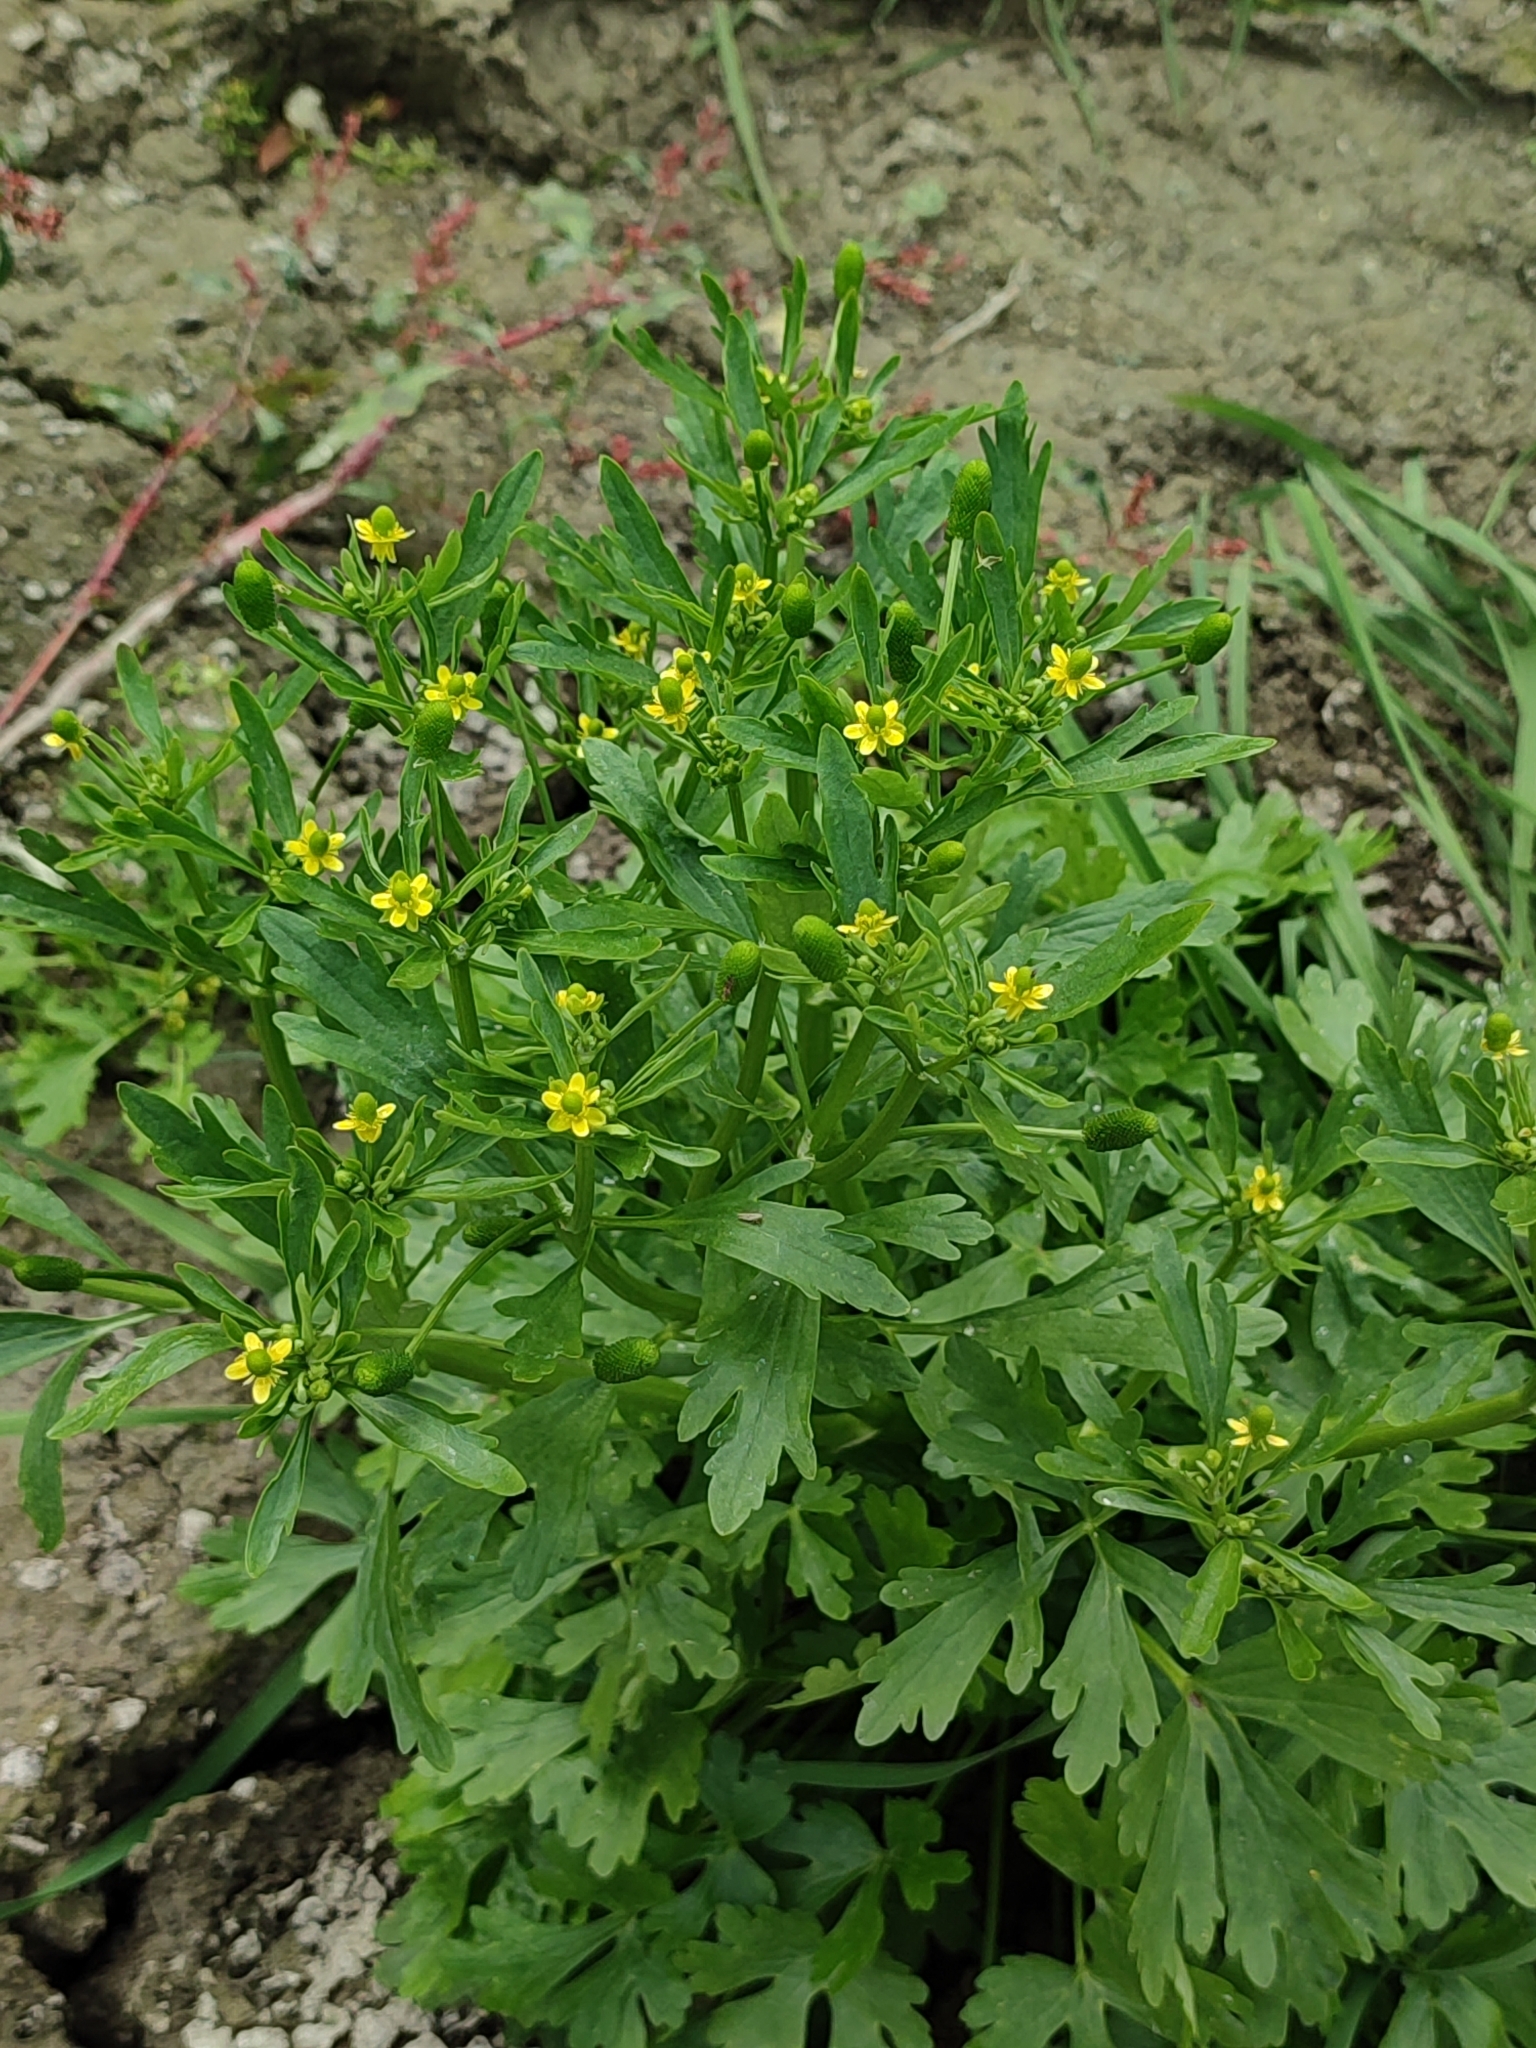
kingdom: Plantae
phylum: Tracheophyta
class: Magnoliopsida
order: Ranunculales
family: Ranunculaceae
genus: Ranunculus
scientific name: Ranunculus sceleratus
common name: Celery-leaved buttercup
